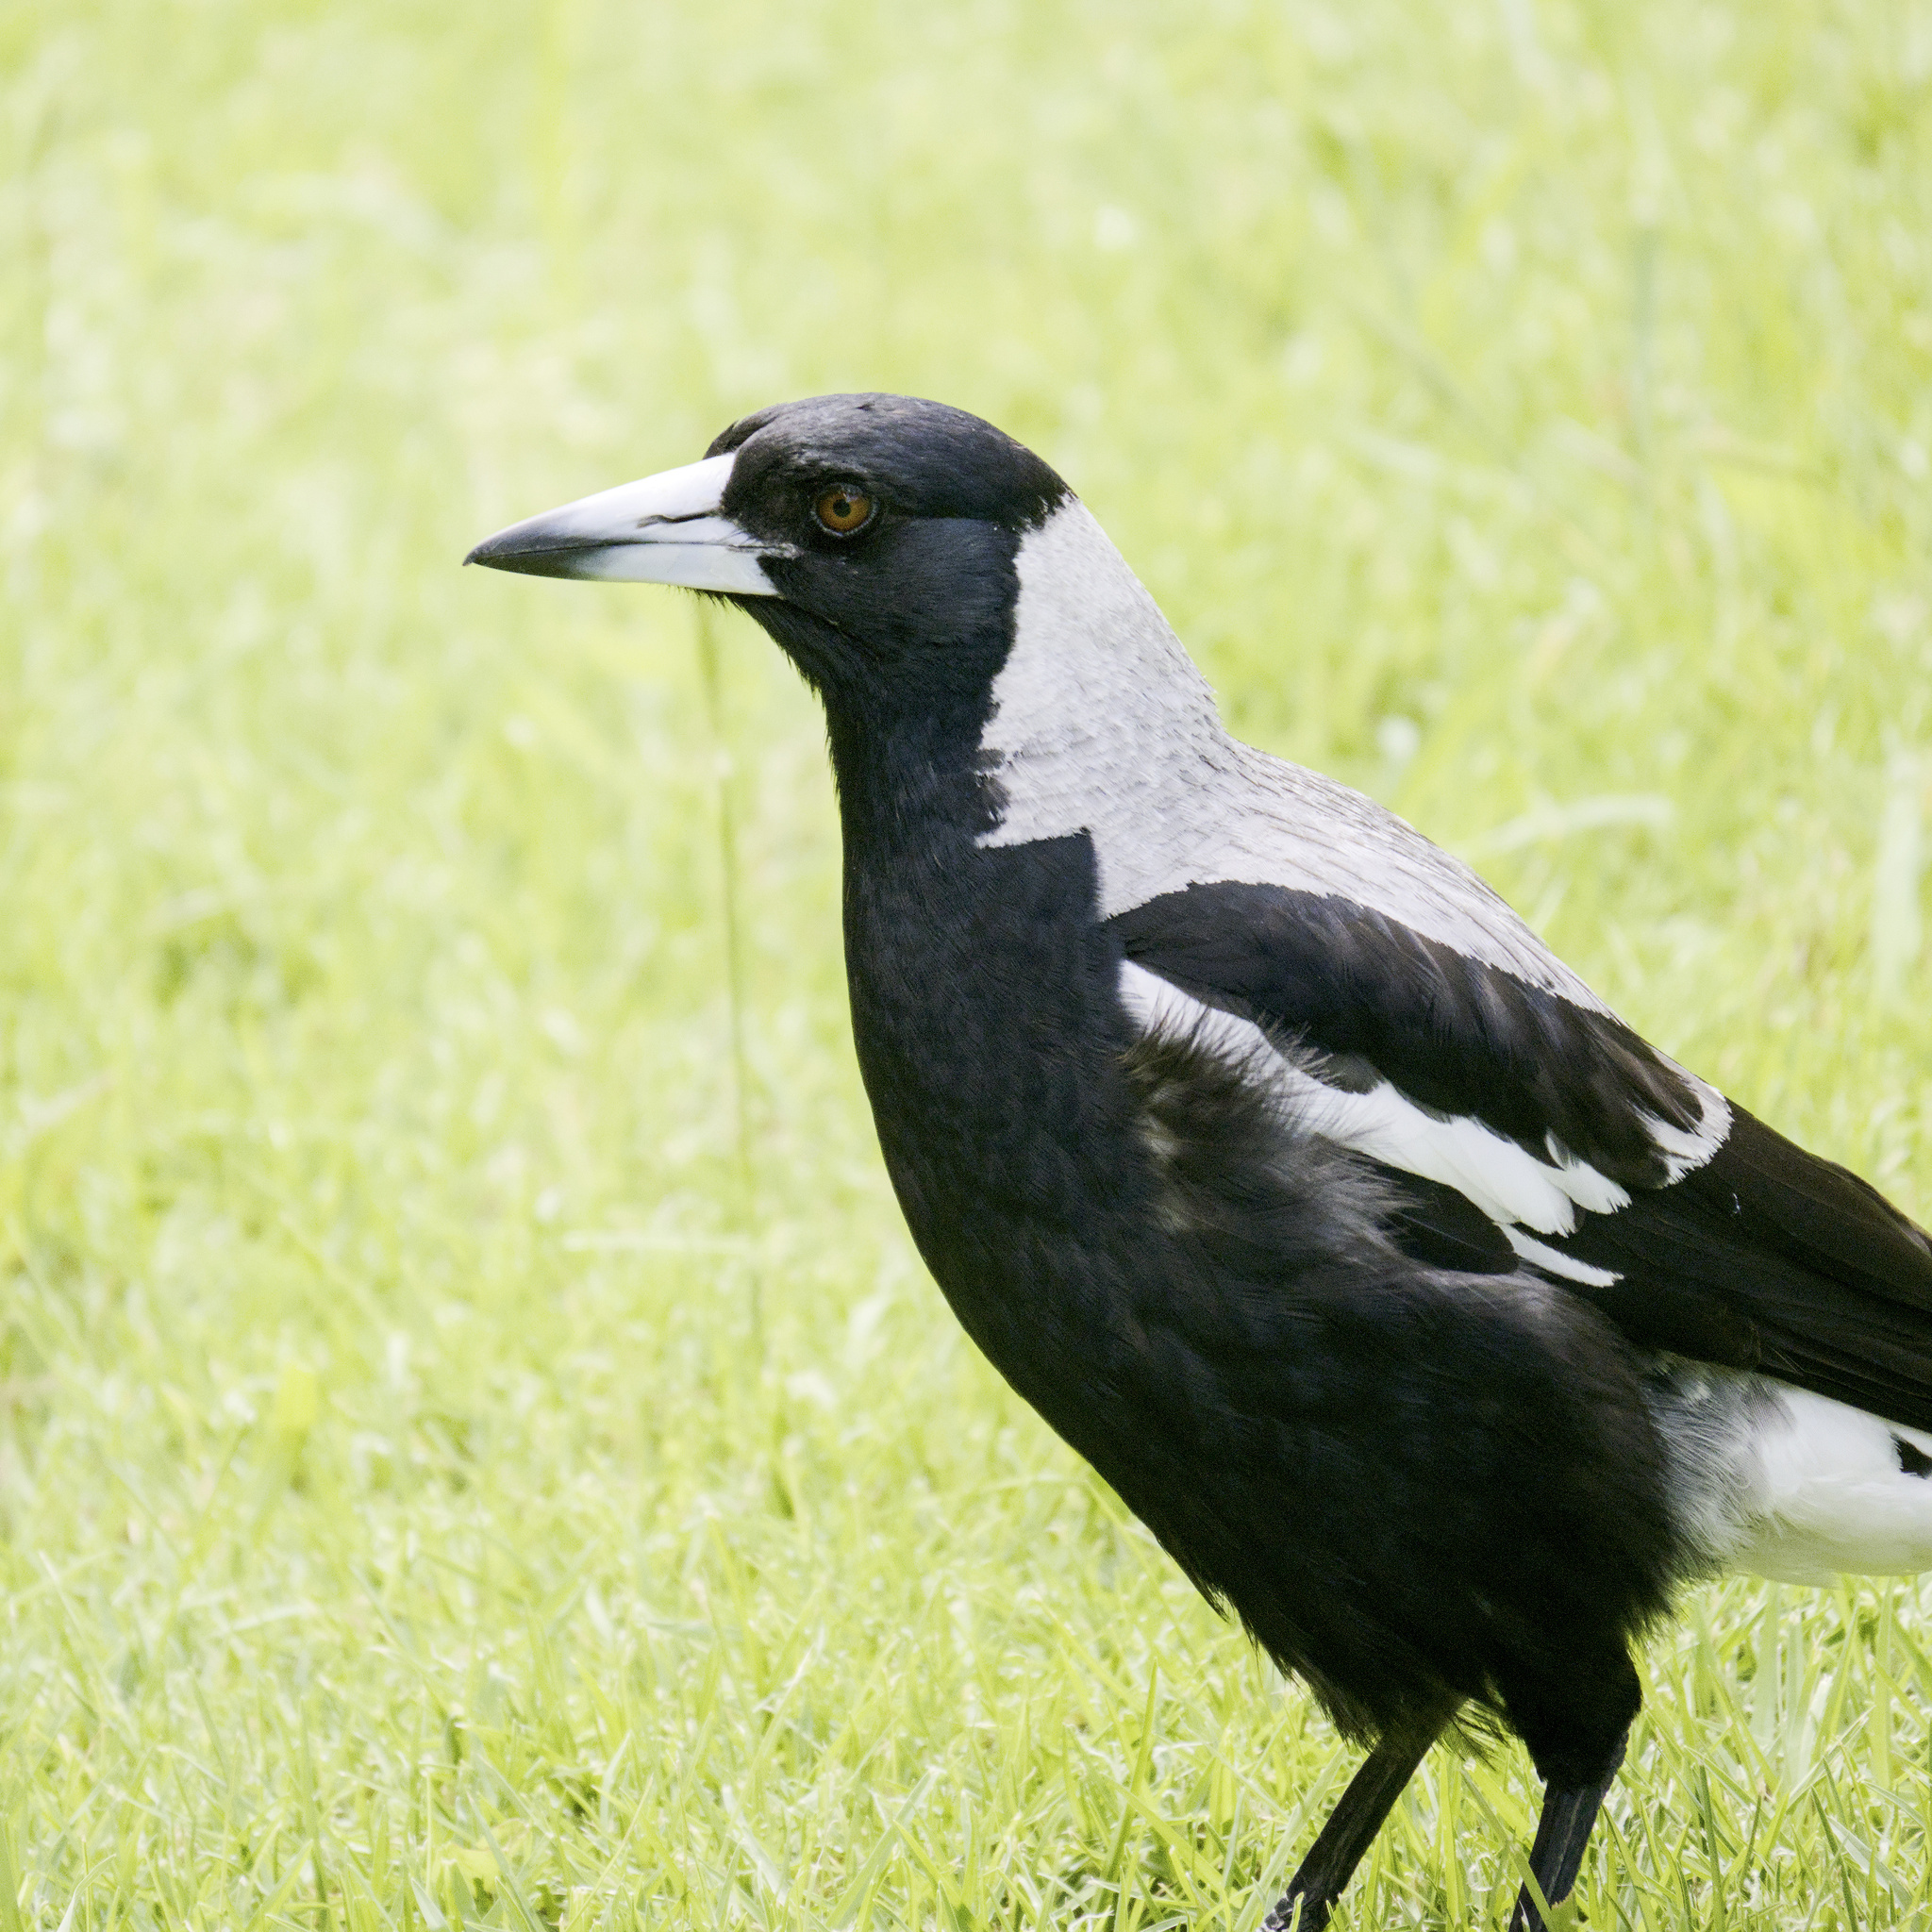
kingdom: Animalia
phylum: Chordata
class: Aves
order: Passeriformes
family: Cracticidae
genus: Gymnorhina
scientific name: Gymnorhina tibicen
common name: Australian magpie
